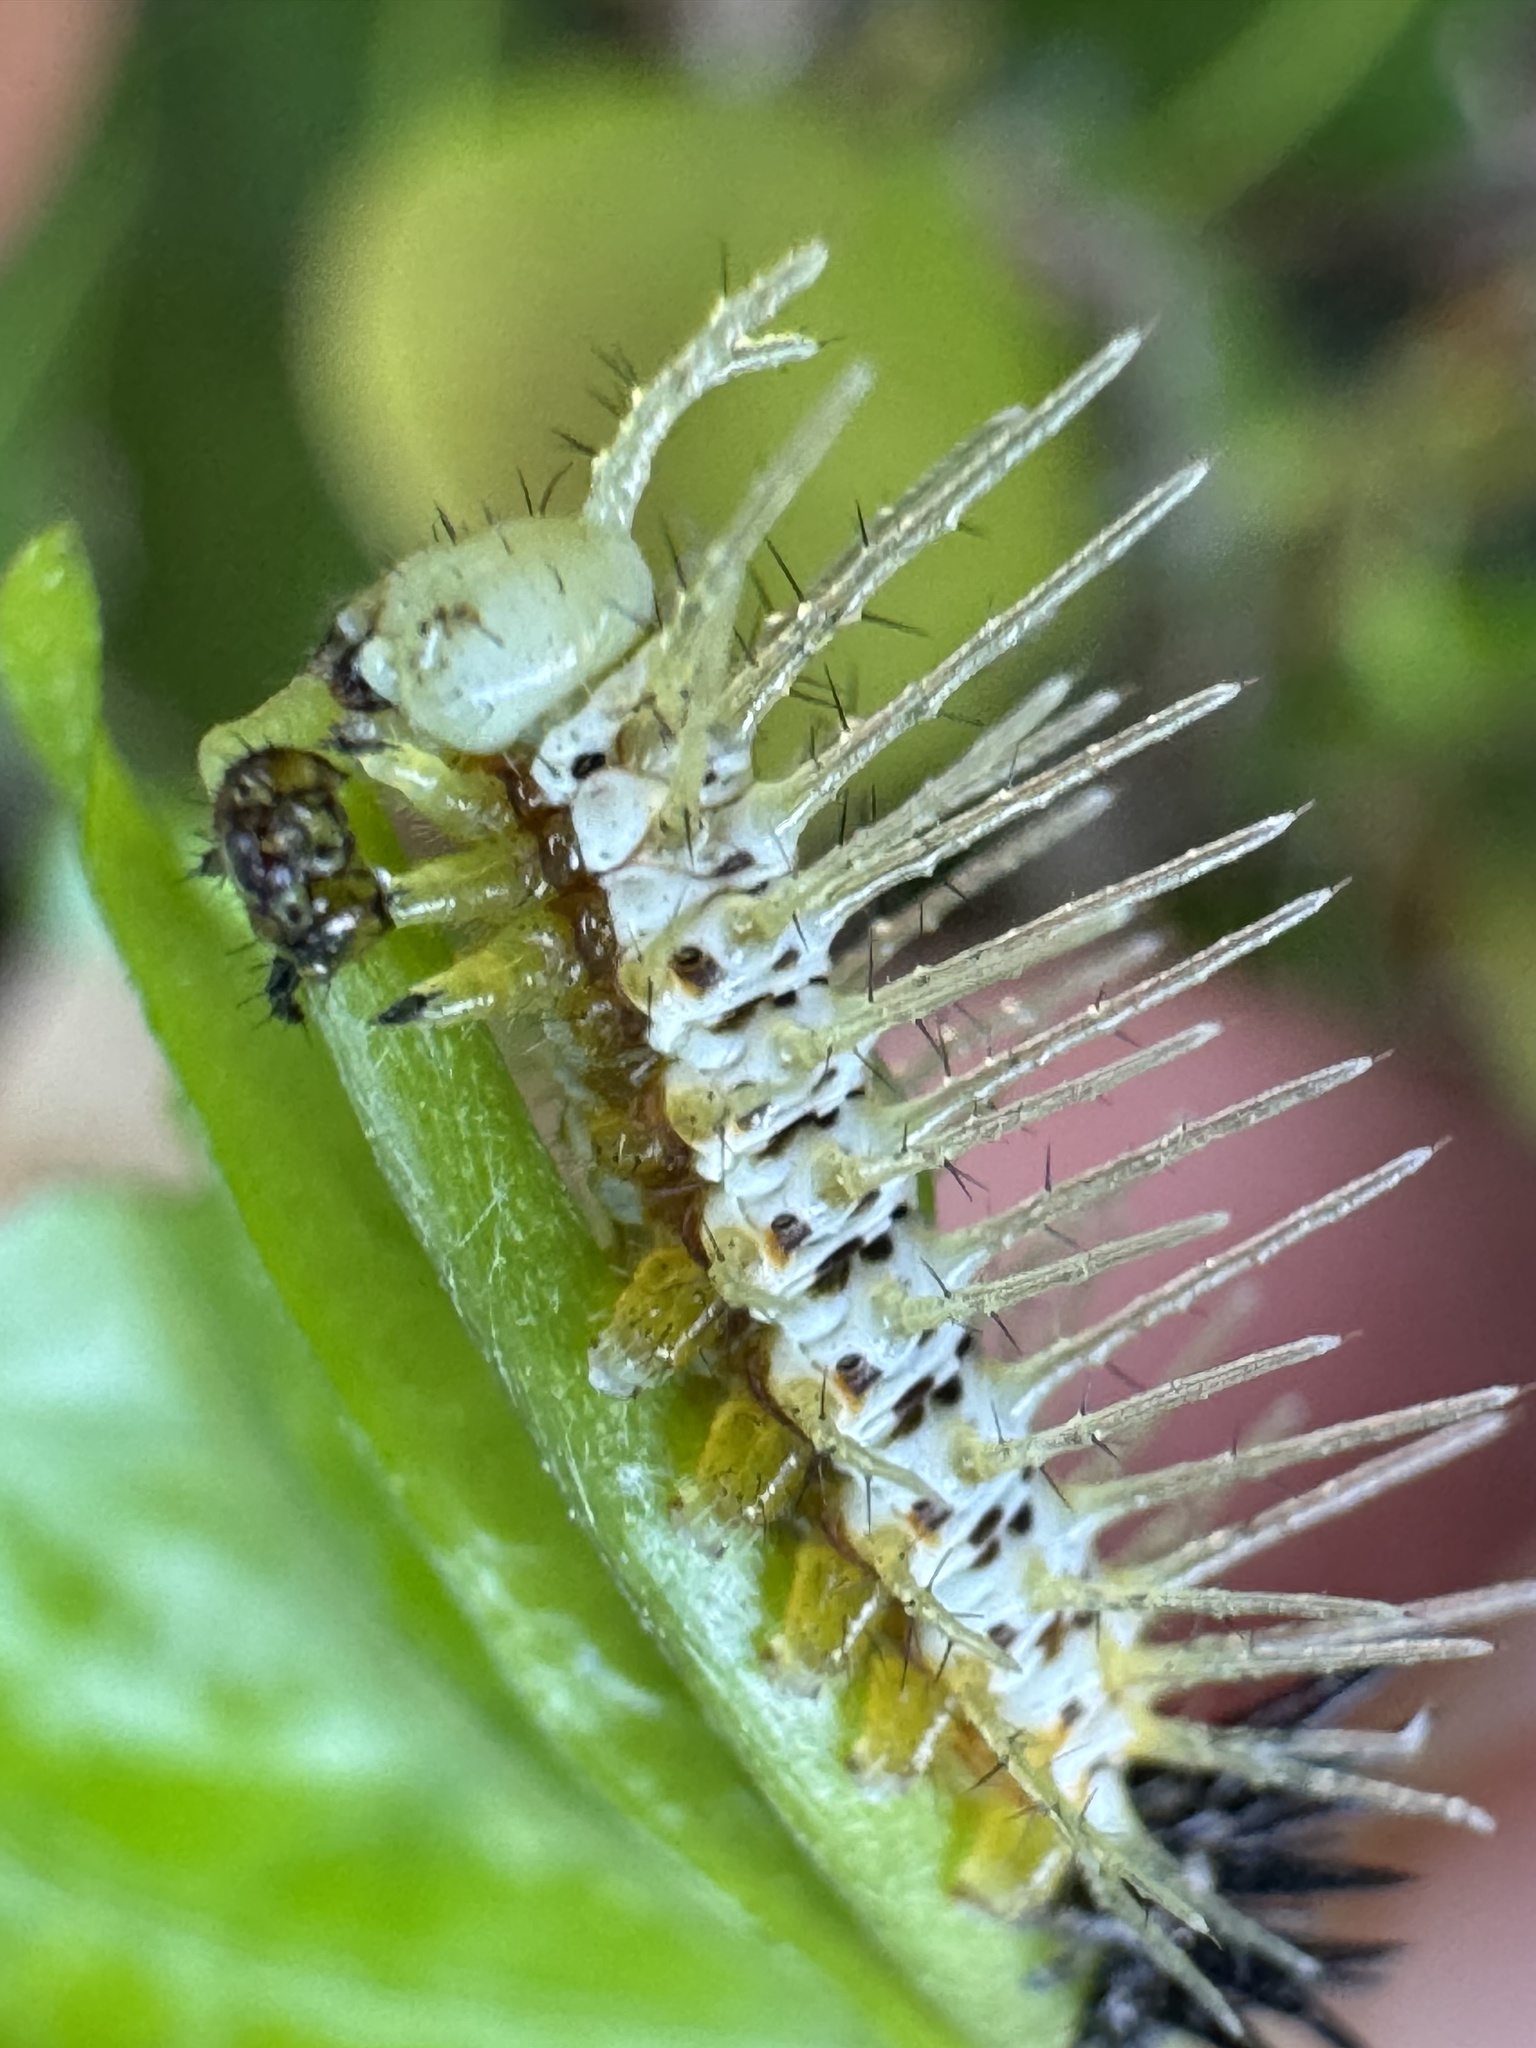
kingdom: Animalia
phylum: Arthropoda
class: Insecta
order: Lepidoptera
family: Nymphalidae
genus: Heliconius
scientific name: Heliconius charithonia
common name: Zebra long wing
